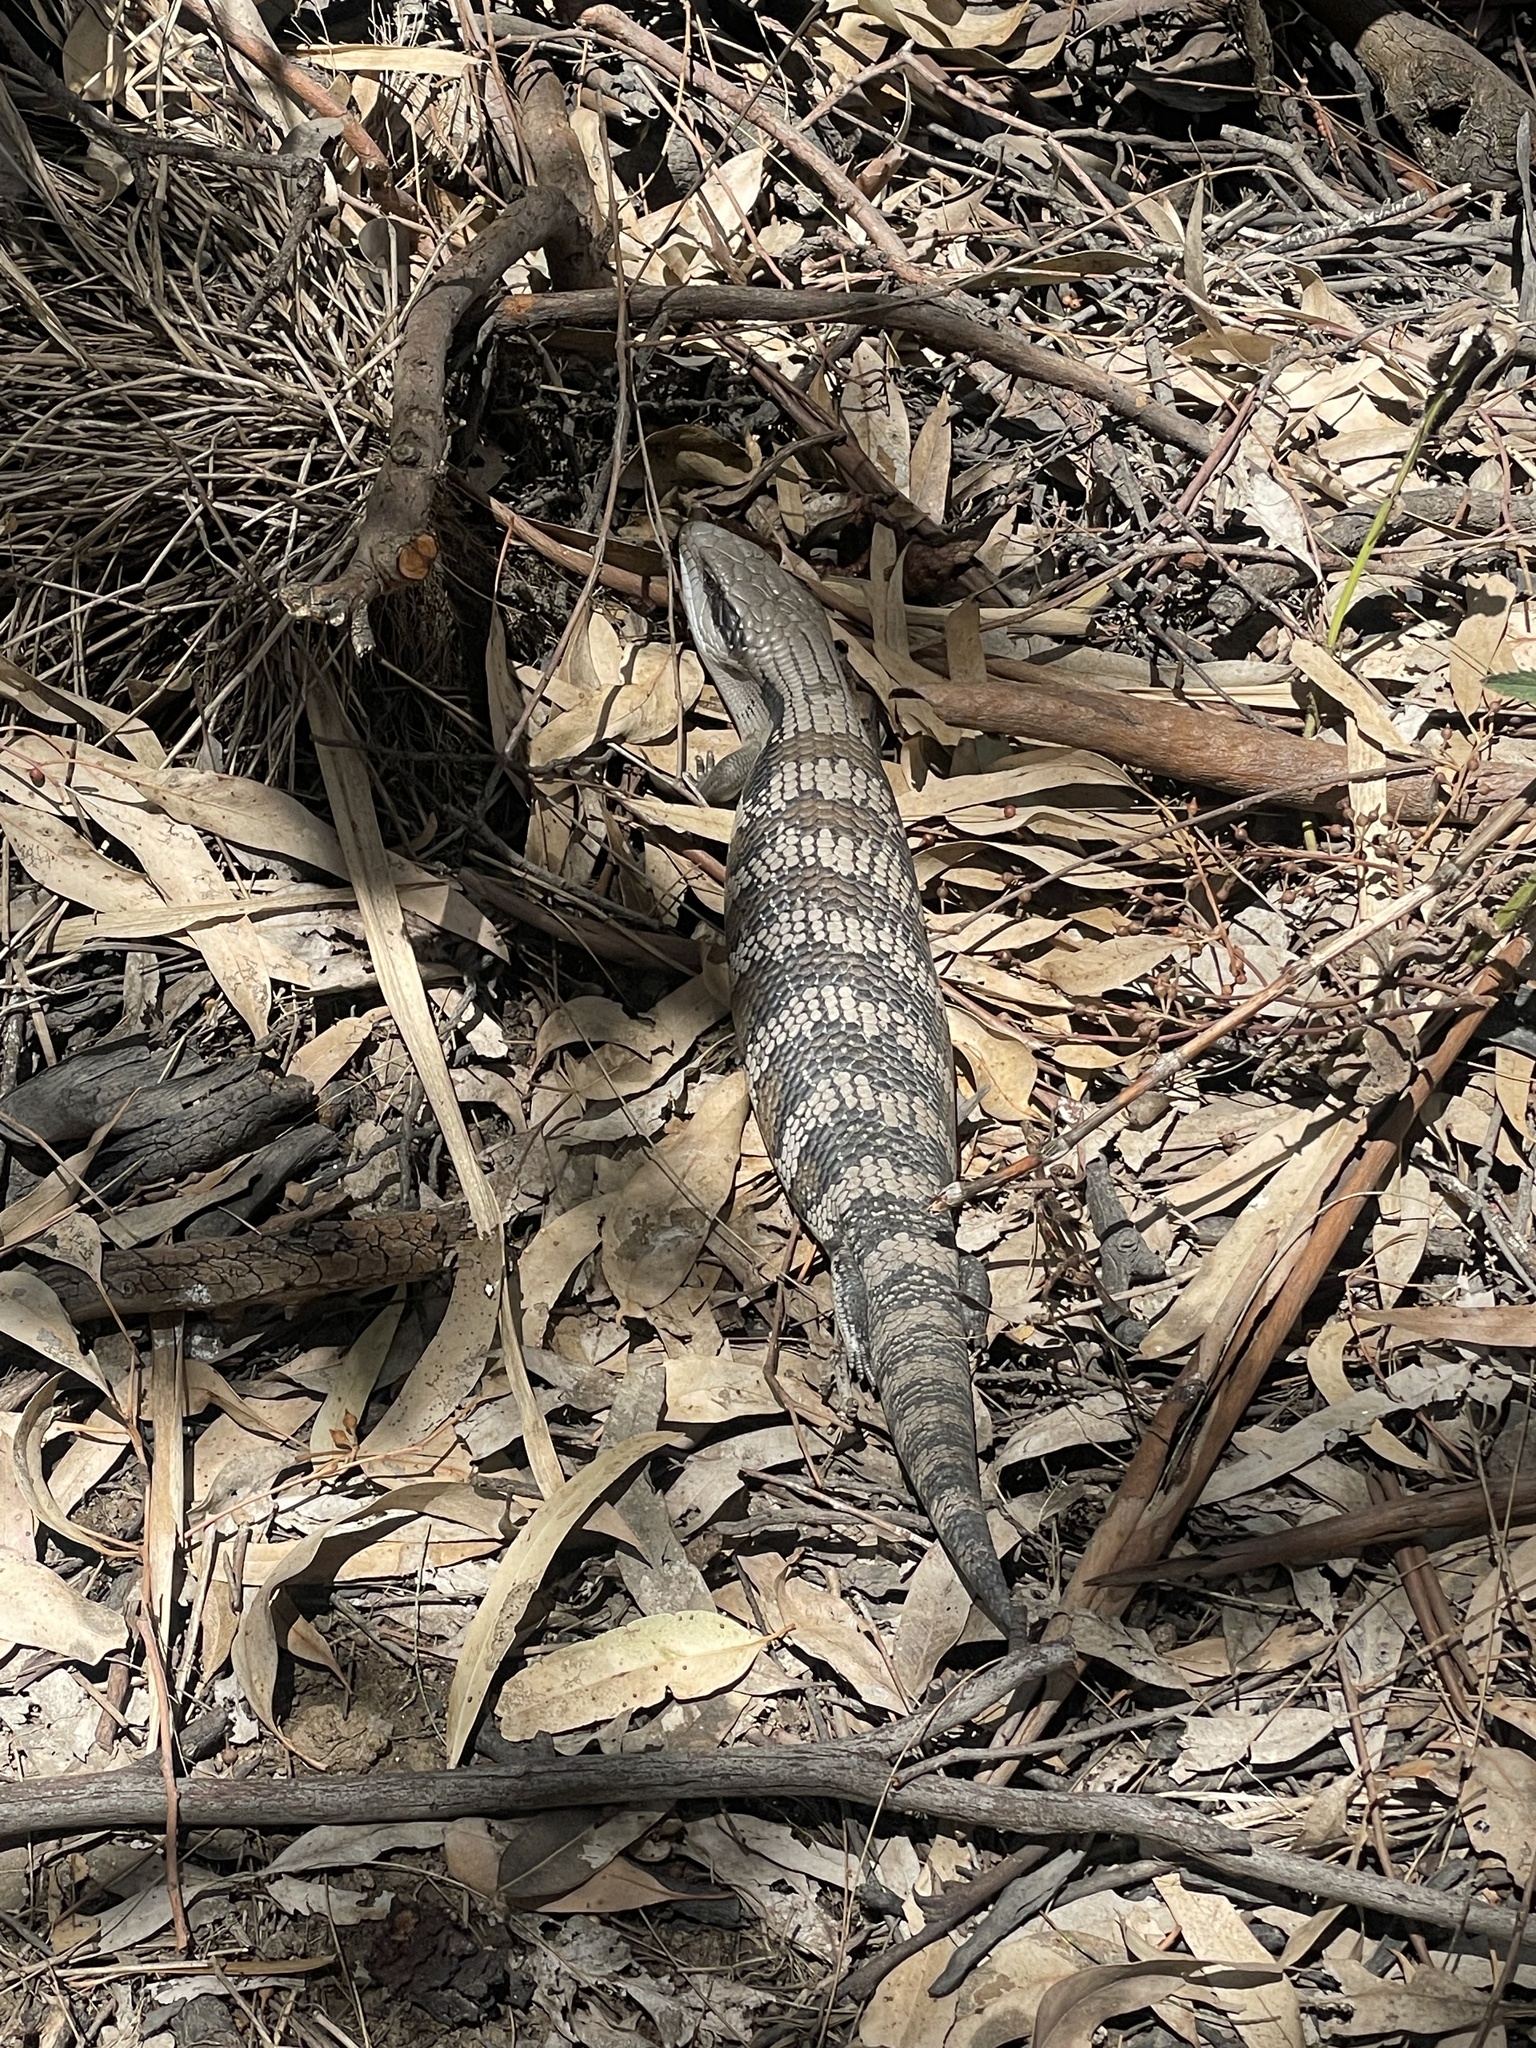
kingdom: Animalia
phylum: Chordata
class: Squamata
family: Scincidae
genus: Tiliqua
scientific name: Tiliqua scincoides
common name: Common bluetongue
